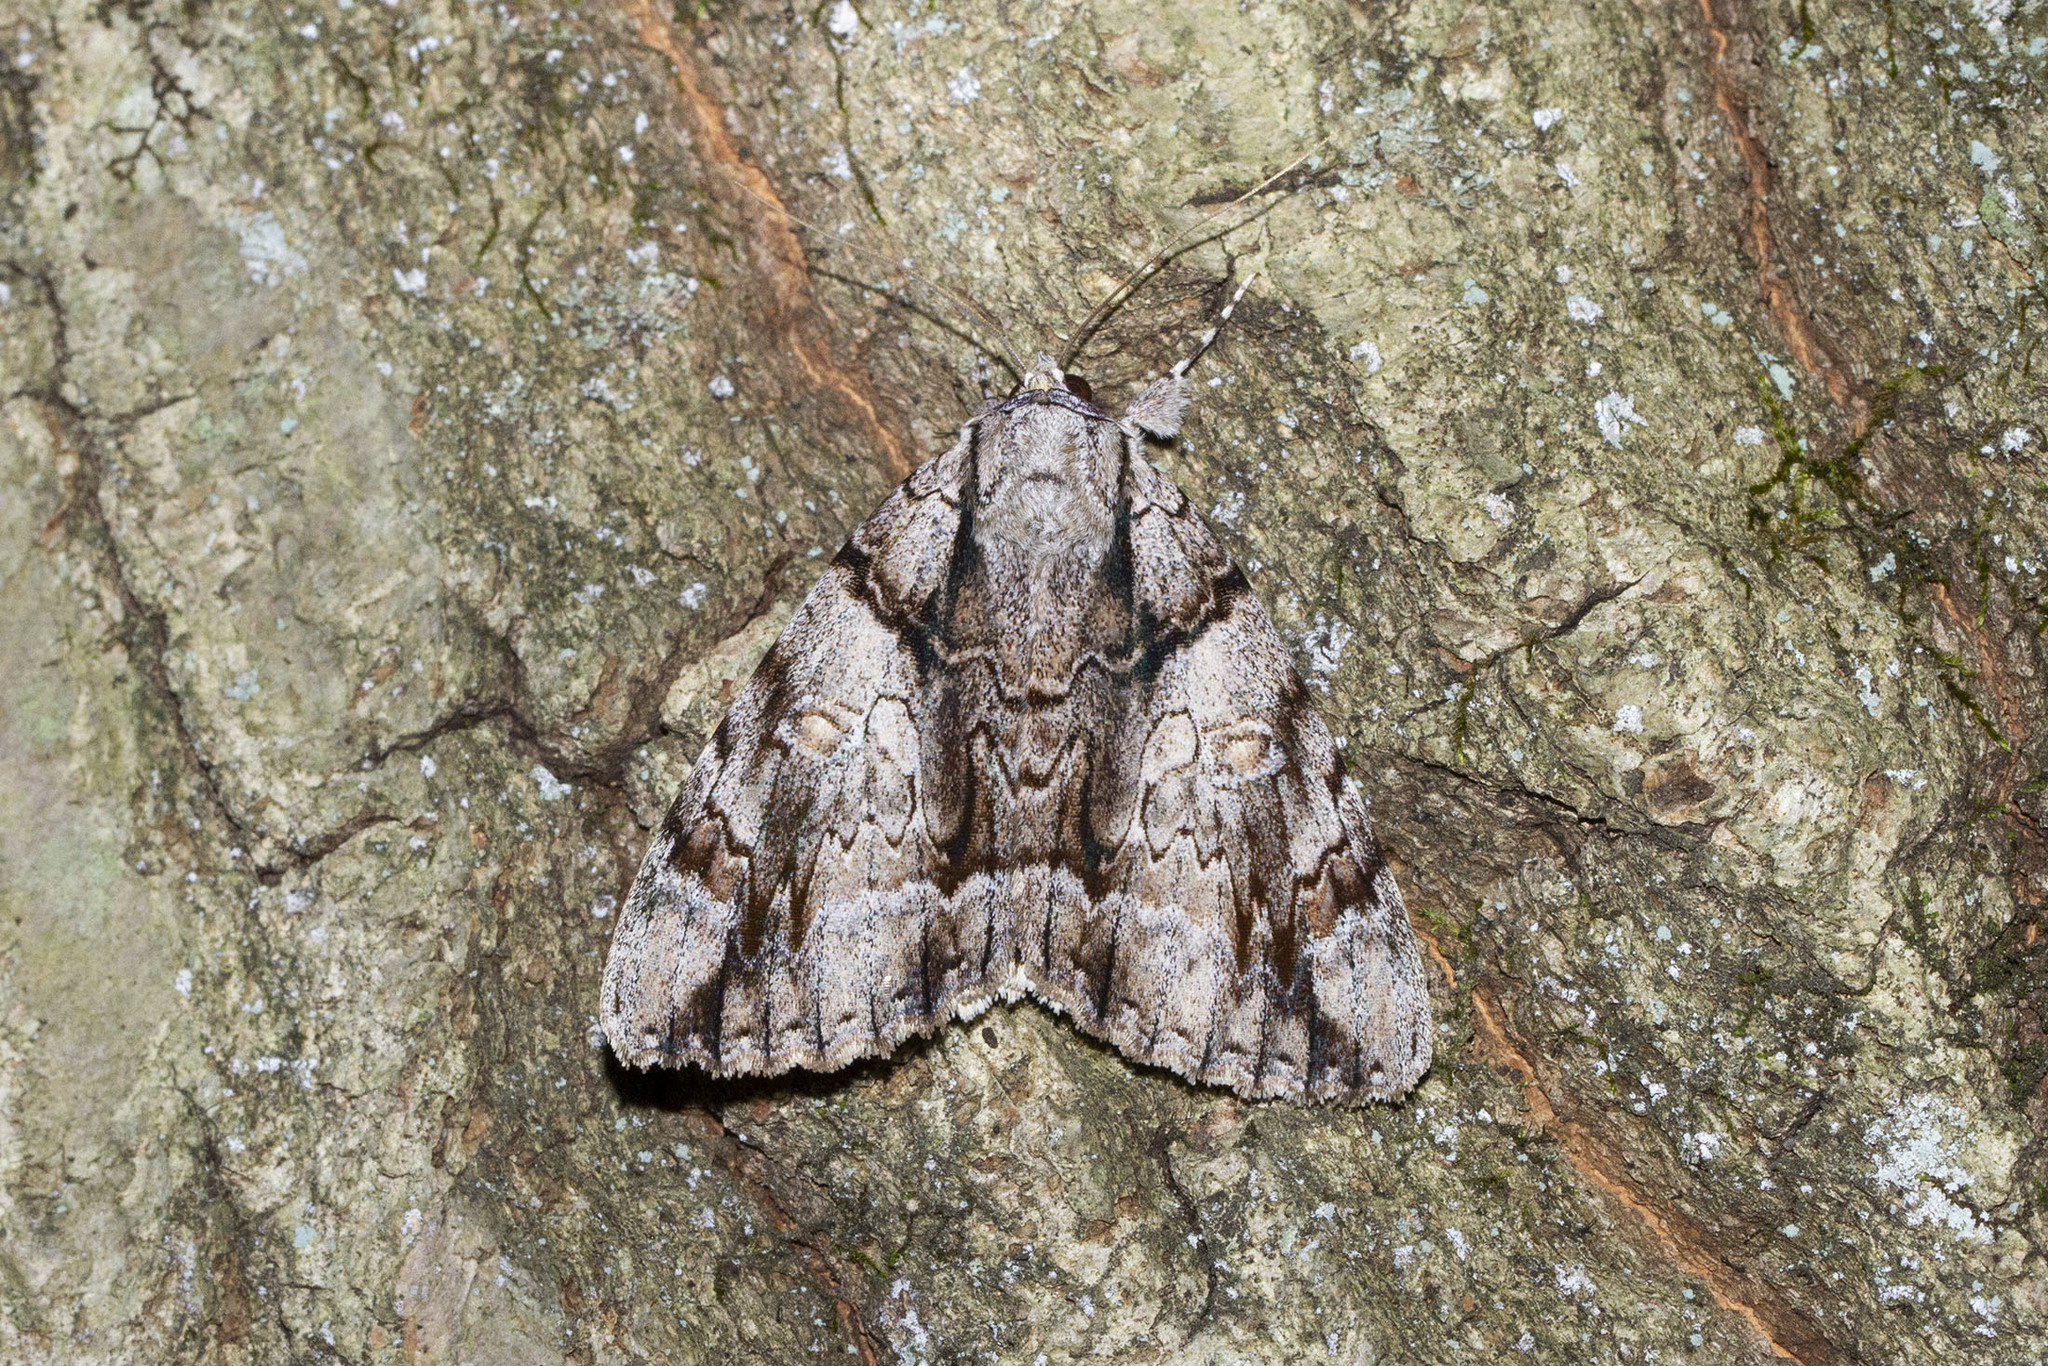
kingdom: Animalia
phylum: Arthropoda
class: Insecta
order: Lepidoptera
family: Erebidae
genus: Catocala
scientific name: Catocala vidua
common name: The widow
